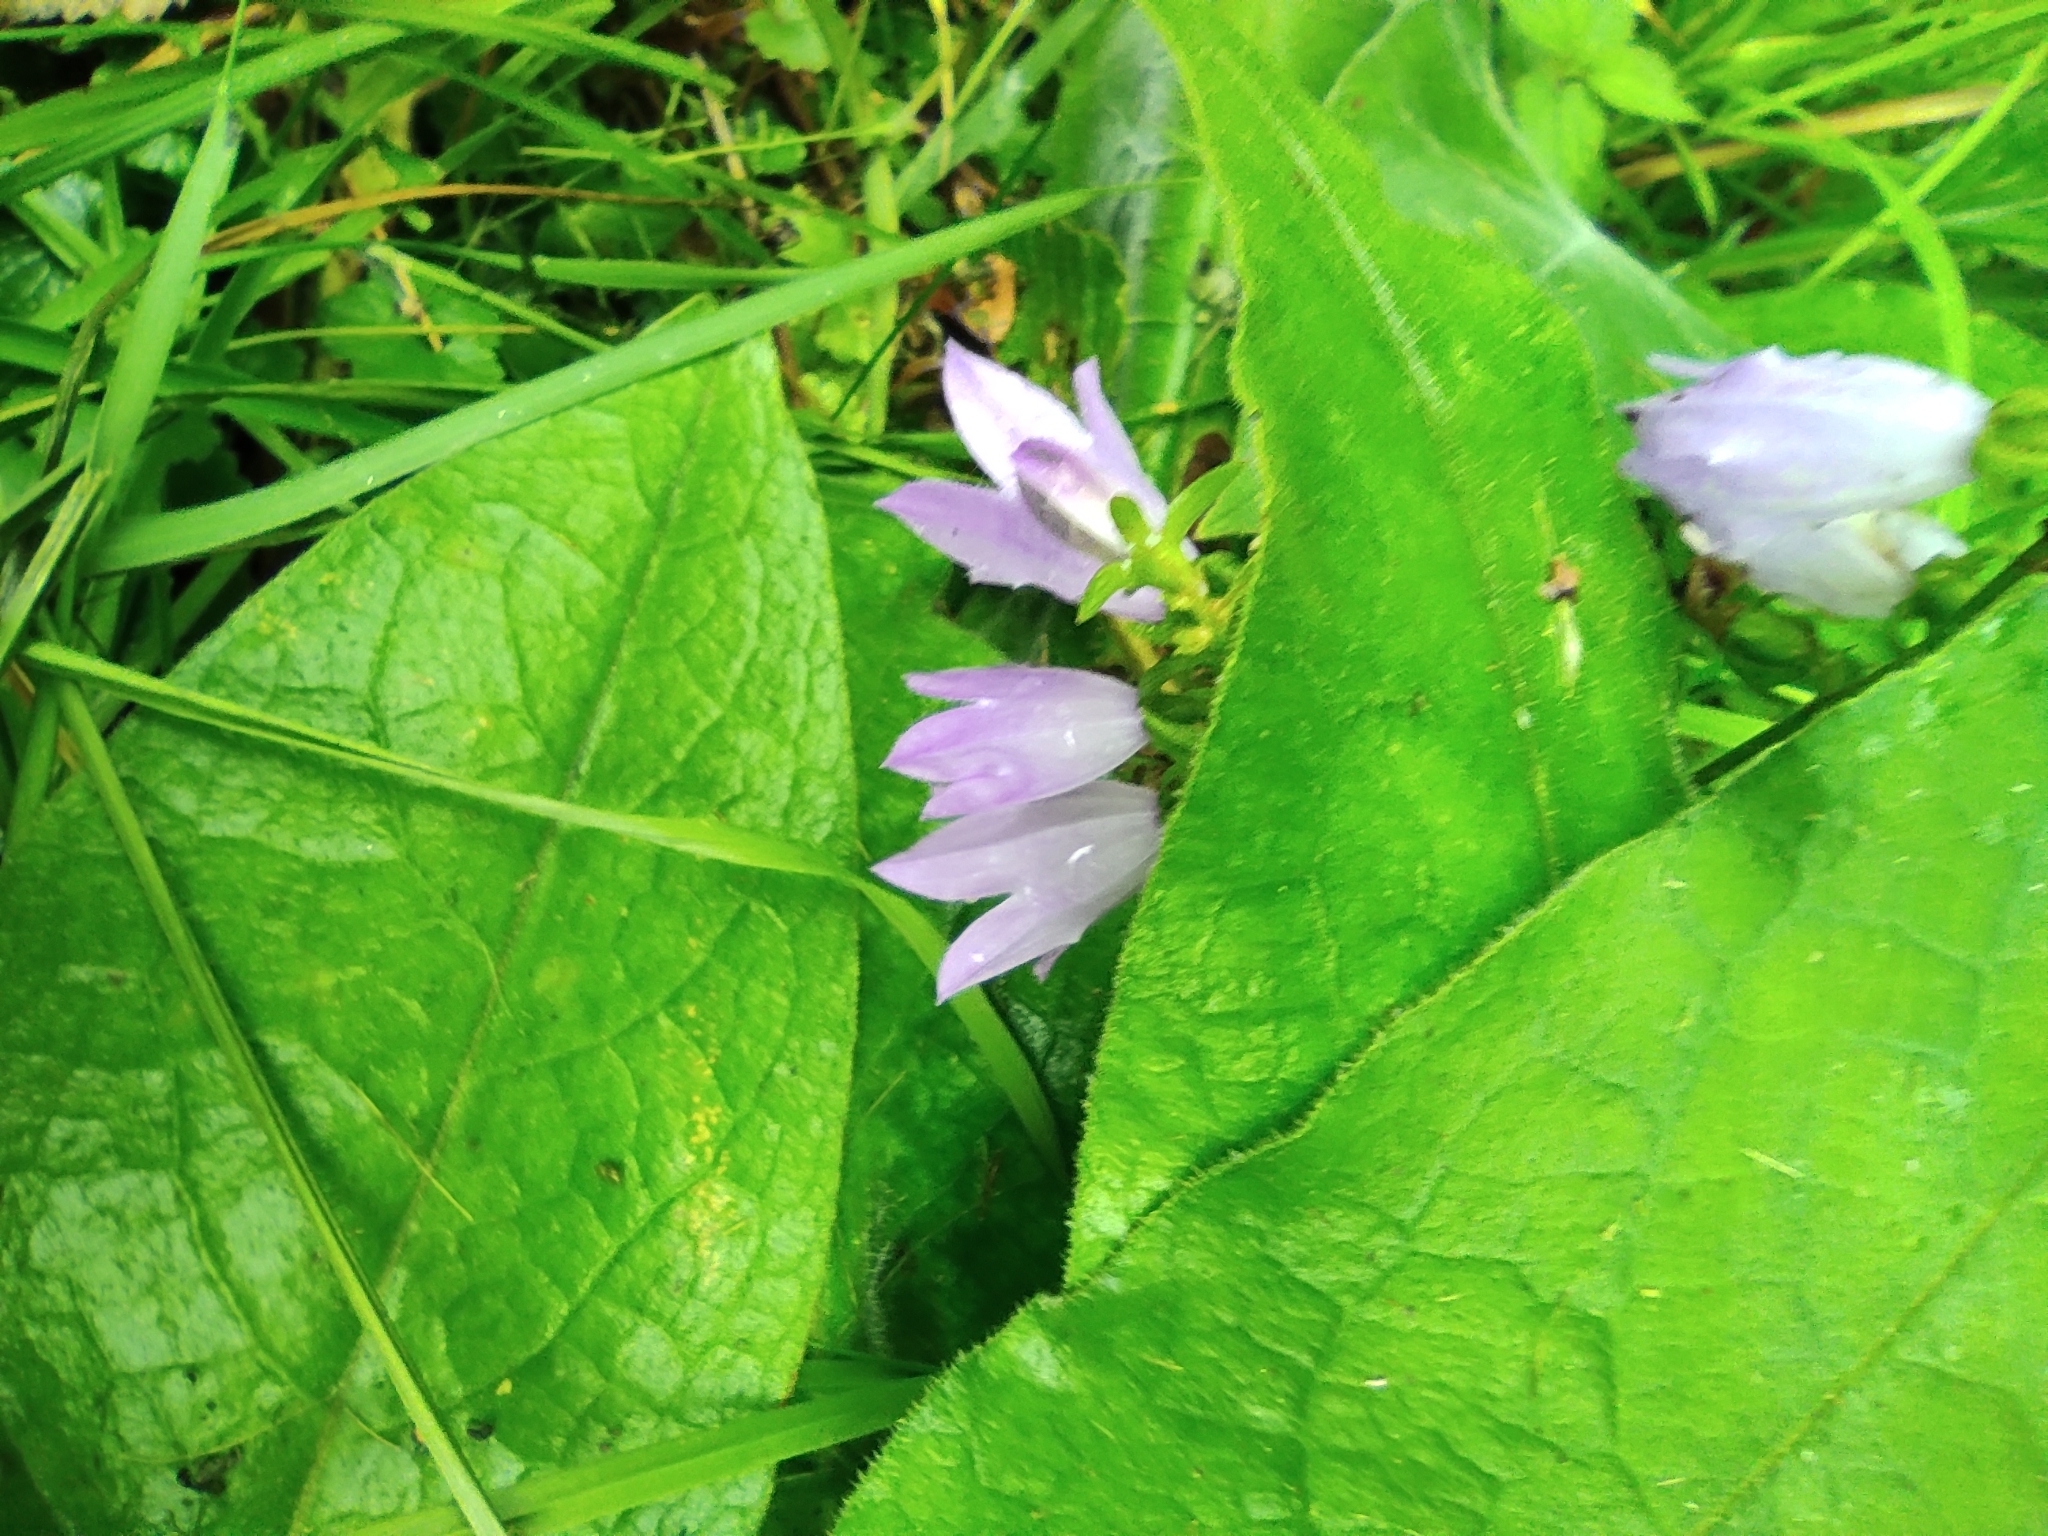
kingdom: Plantae
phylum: Tracheophyta
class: Magnoliopsida
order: Asterales
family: Campanulaceae
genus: Campanula
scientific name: Campanula rapunculoides
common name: Creeping bellflower
